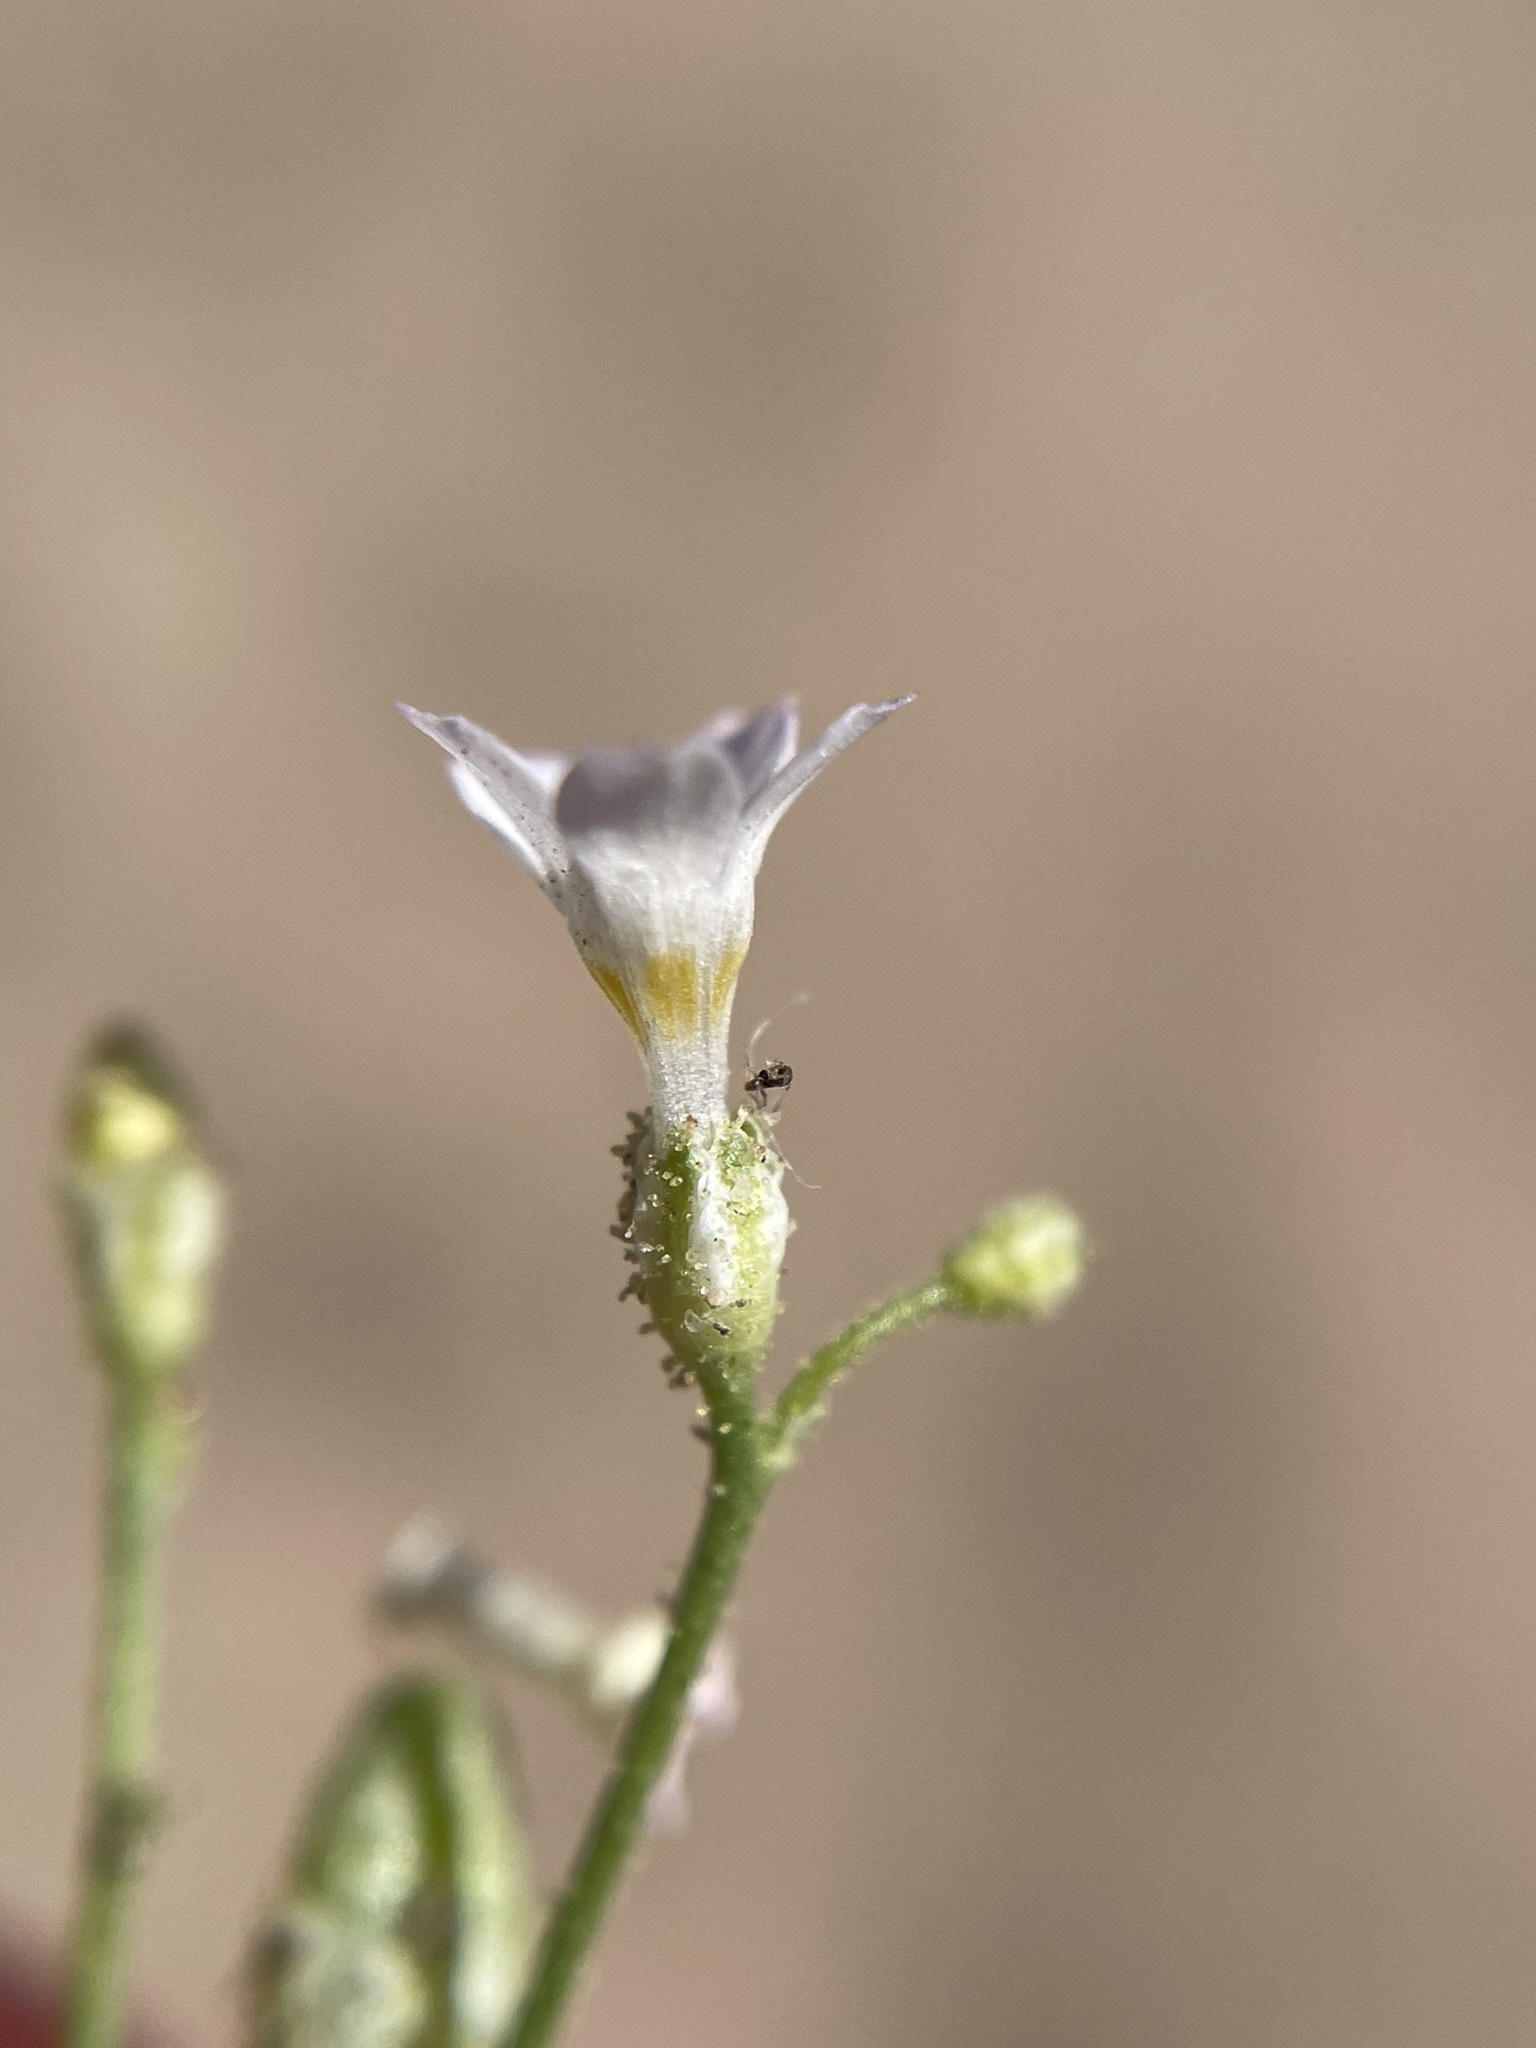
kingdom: Plantae
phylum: Tracheophyta
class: Magnoliopsida
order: Ericales
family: Polemoniaceae
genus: Aliciella
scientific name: Aliciella lottiae
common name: Lott's gilia
